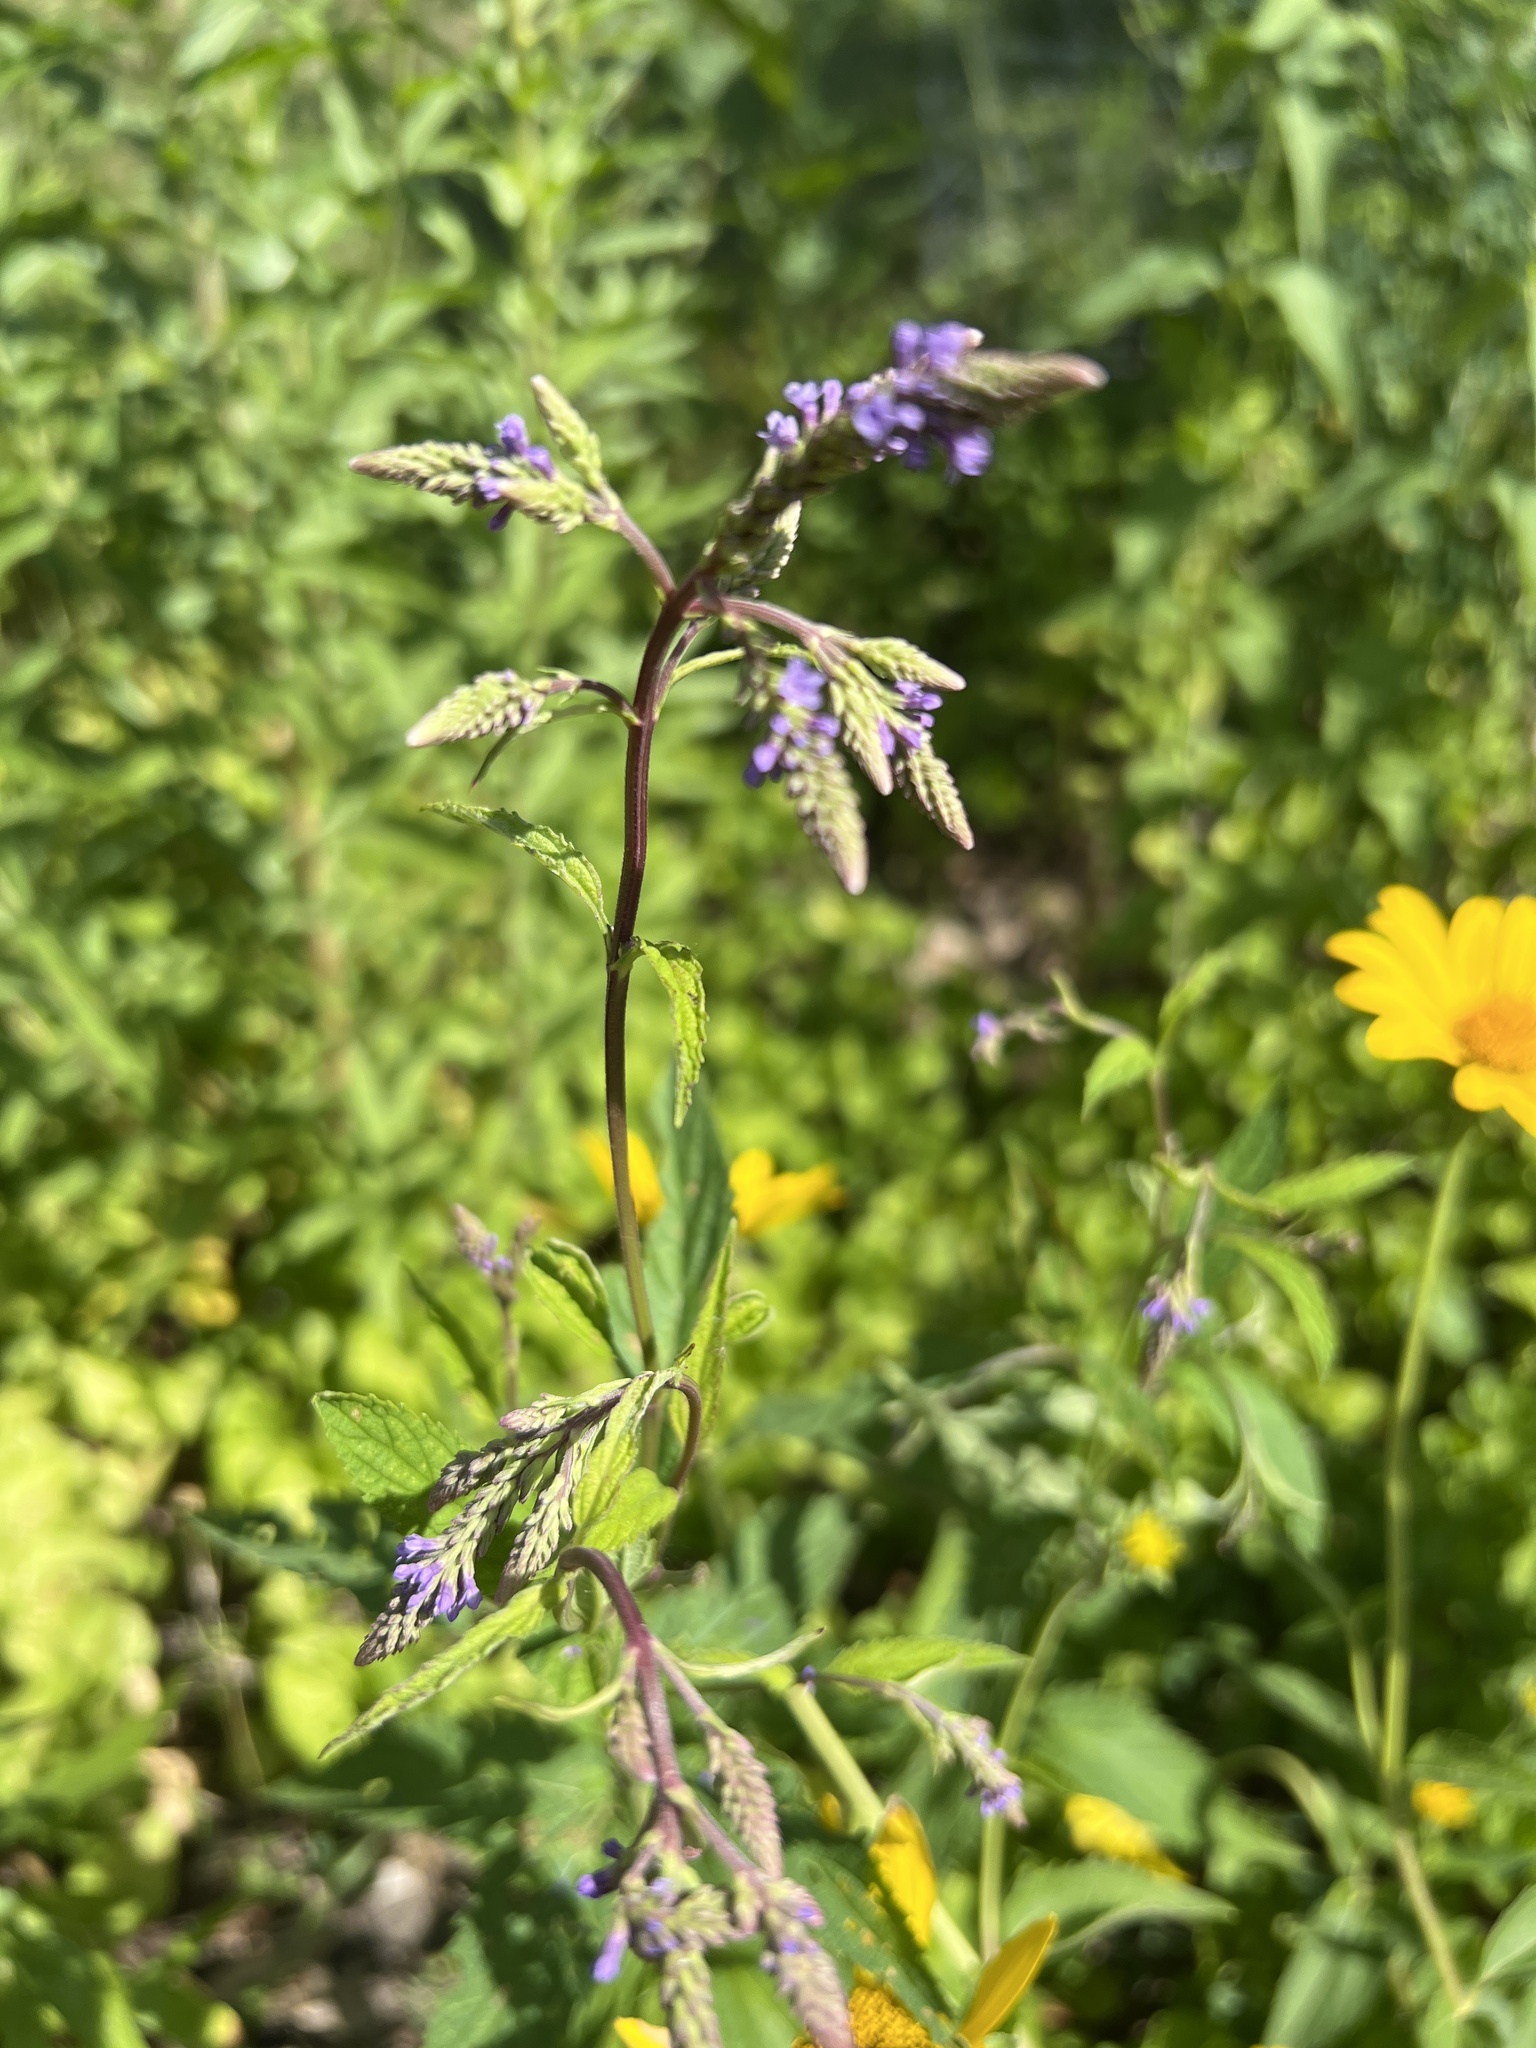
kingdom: Plantae
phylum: Tracheophyta
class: Magnoliopsida
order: Lamiales
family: Verbenaceae
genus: Verbena
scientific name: Verbena hastata
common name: American blue vervain
